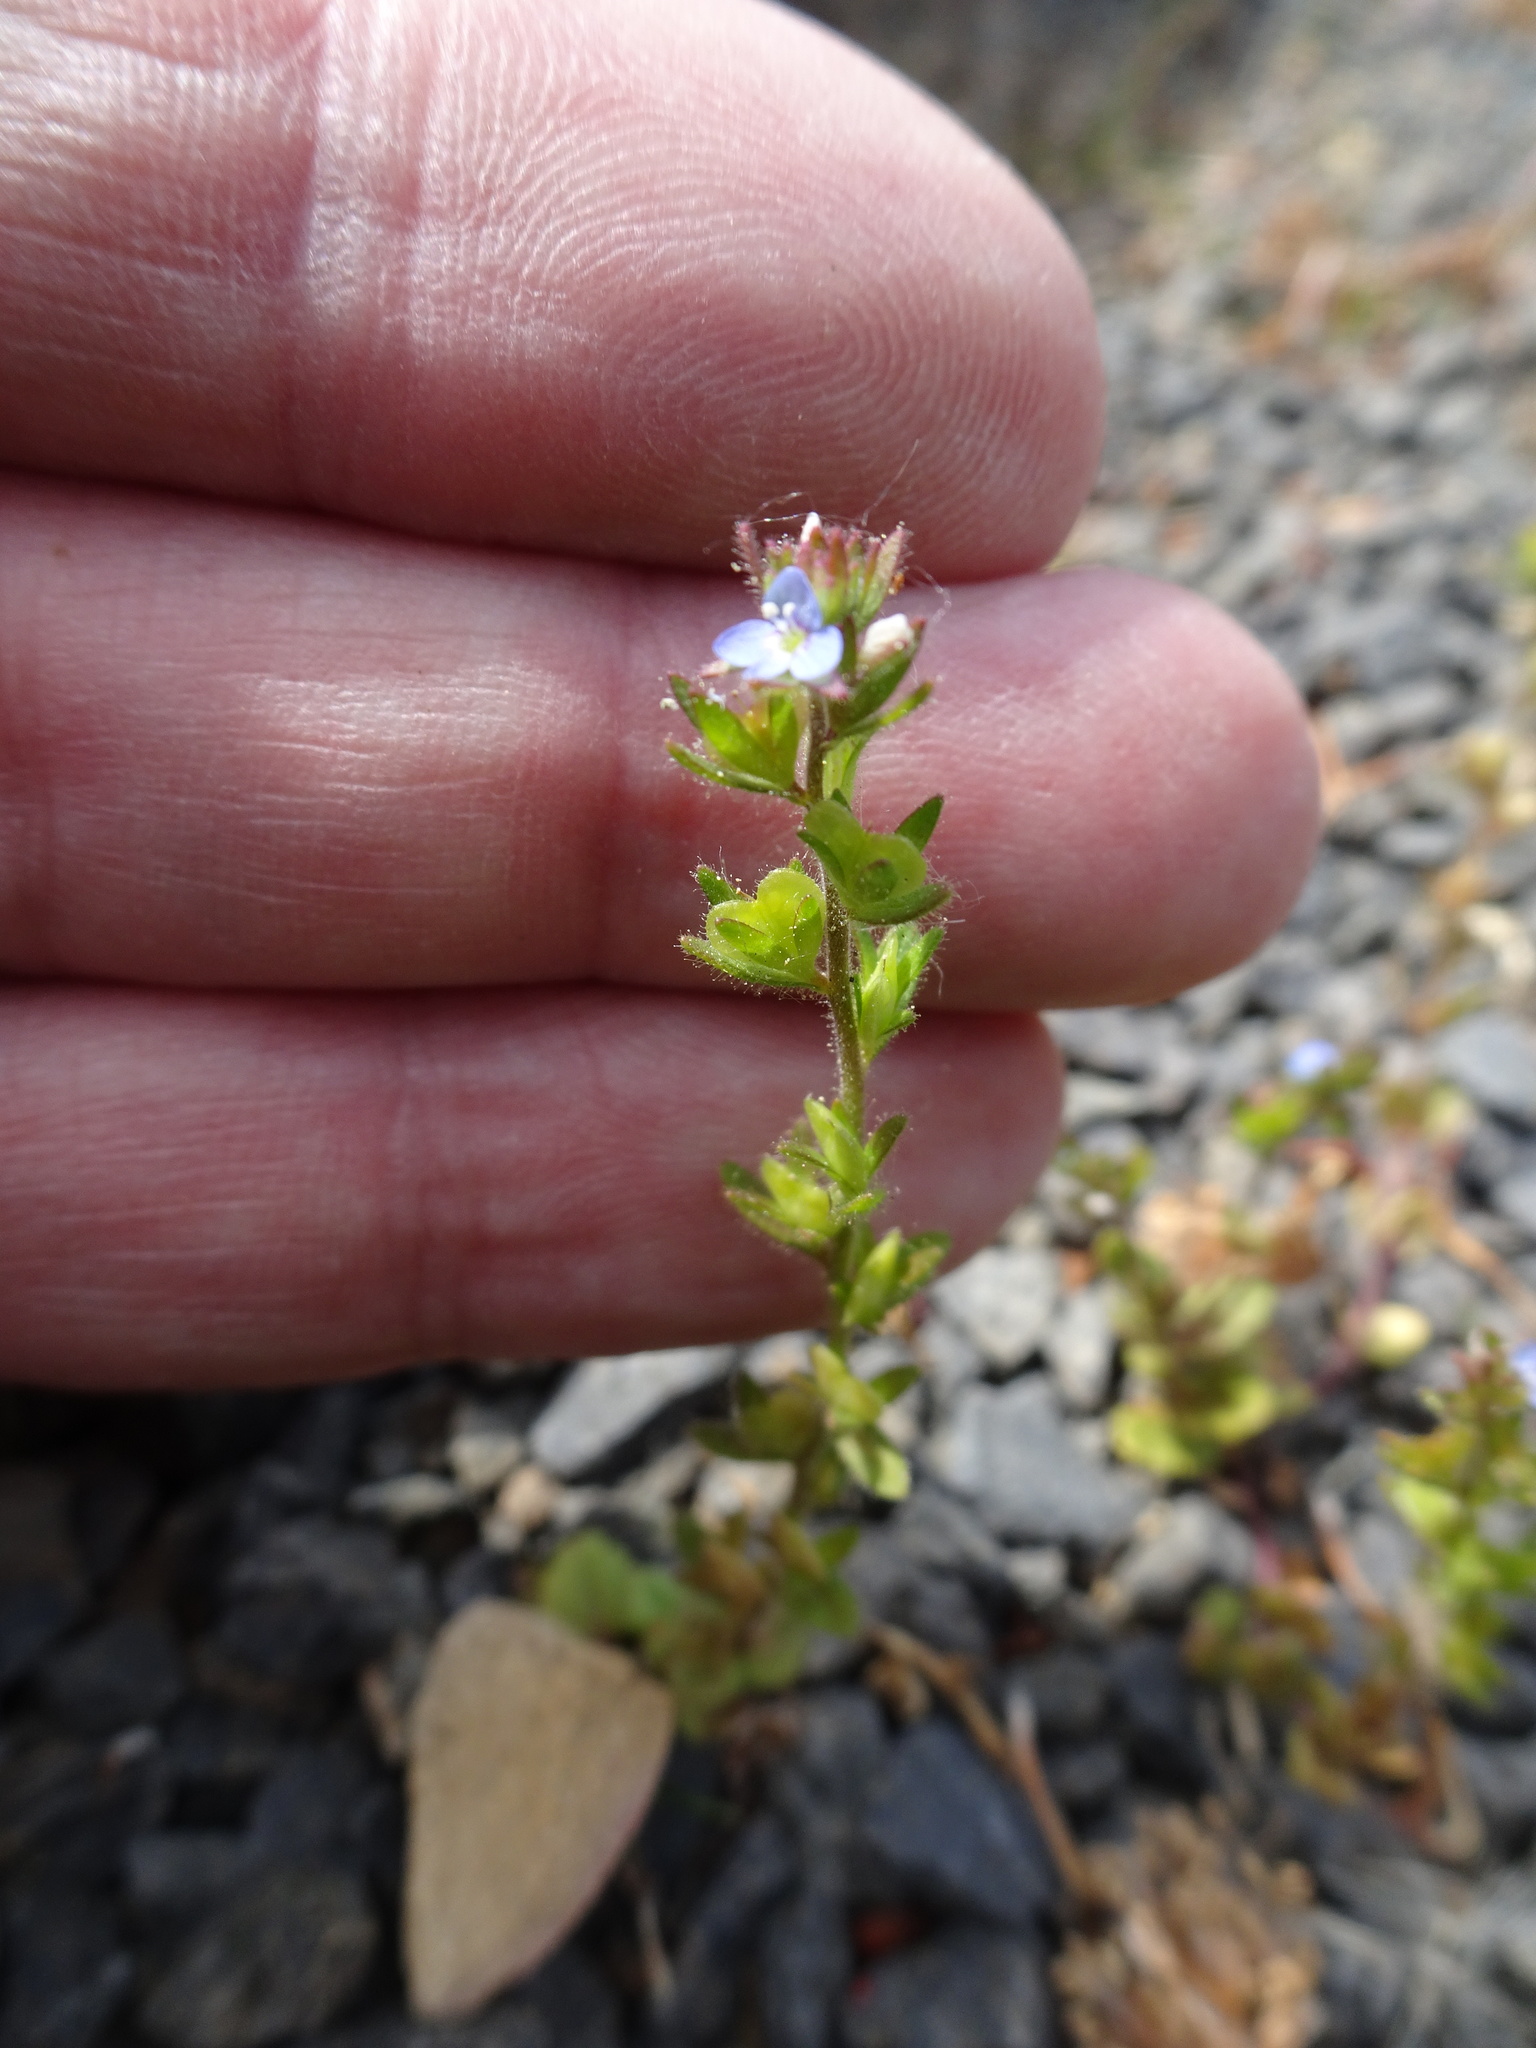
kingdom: Plantae
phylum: Tracheophyta
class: Magnoliopsida
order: Lamiales
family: Plantaginaceae
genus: Veronica
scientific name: Veronica arvensis
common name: Corn speedwell
